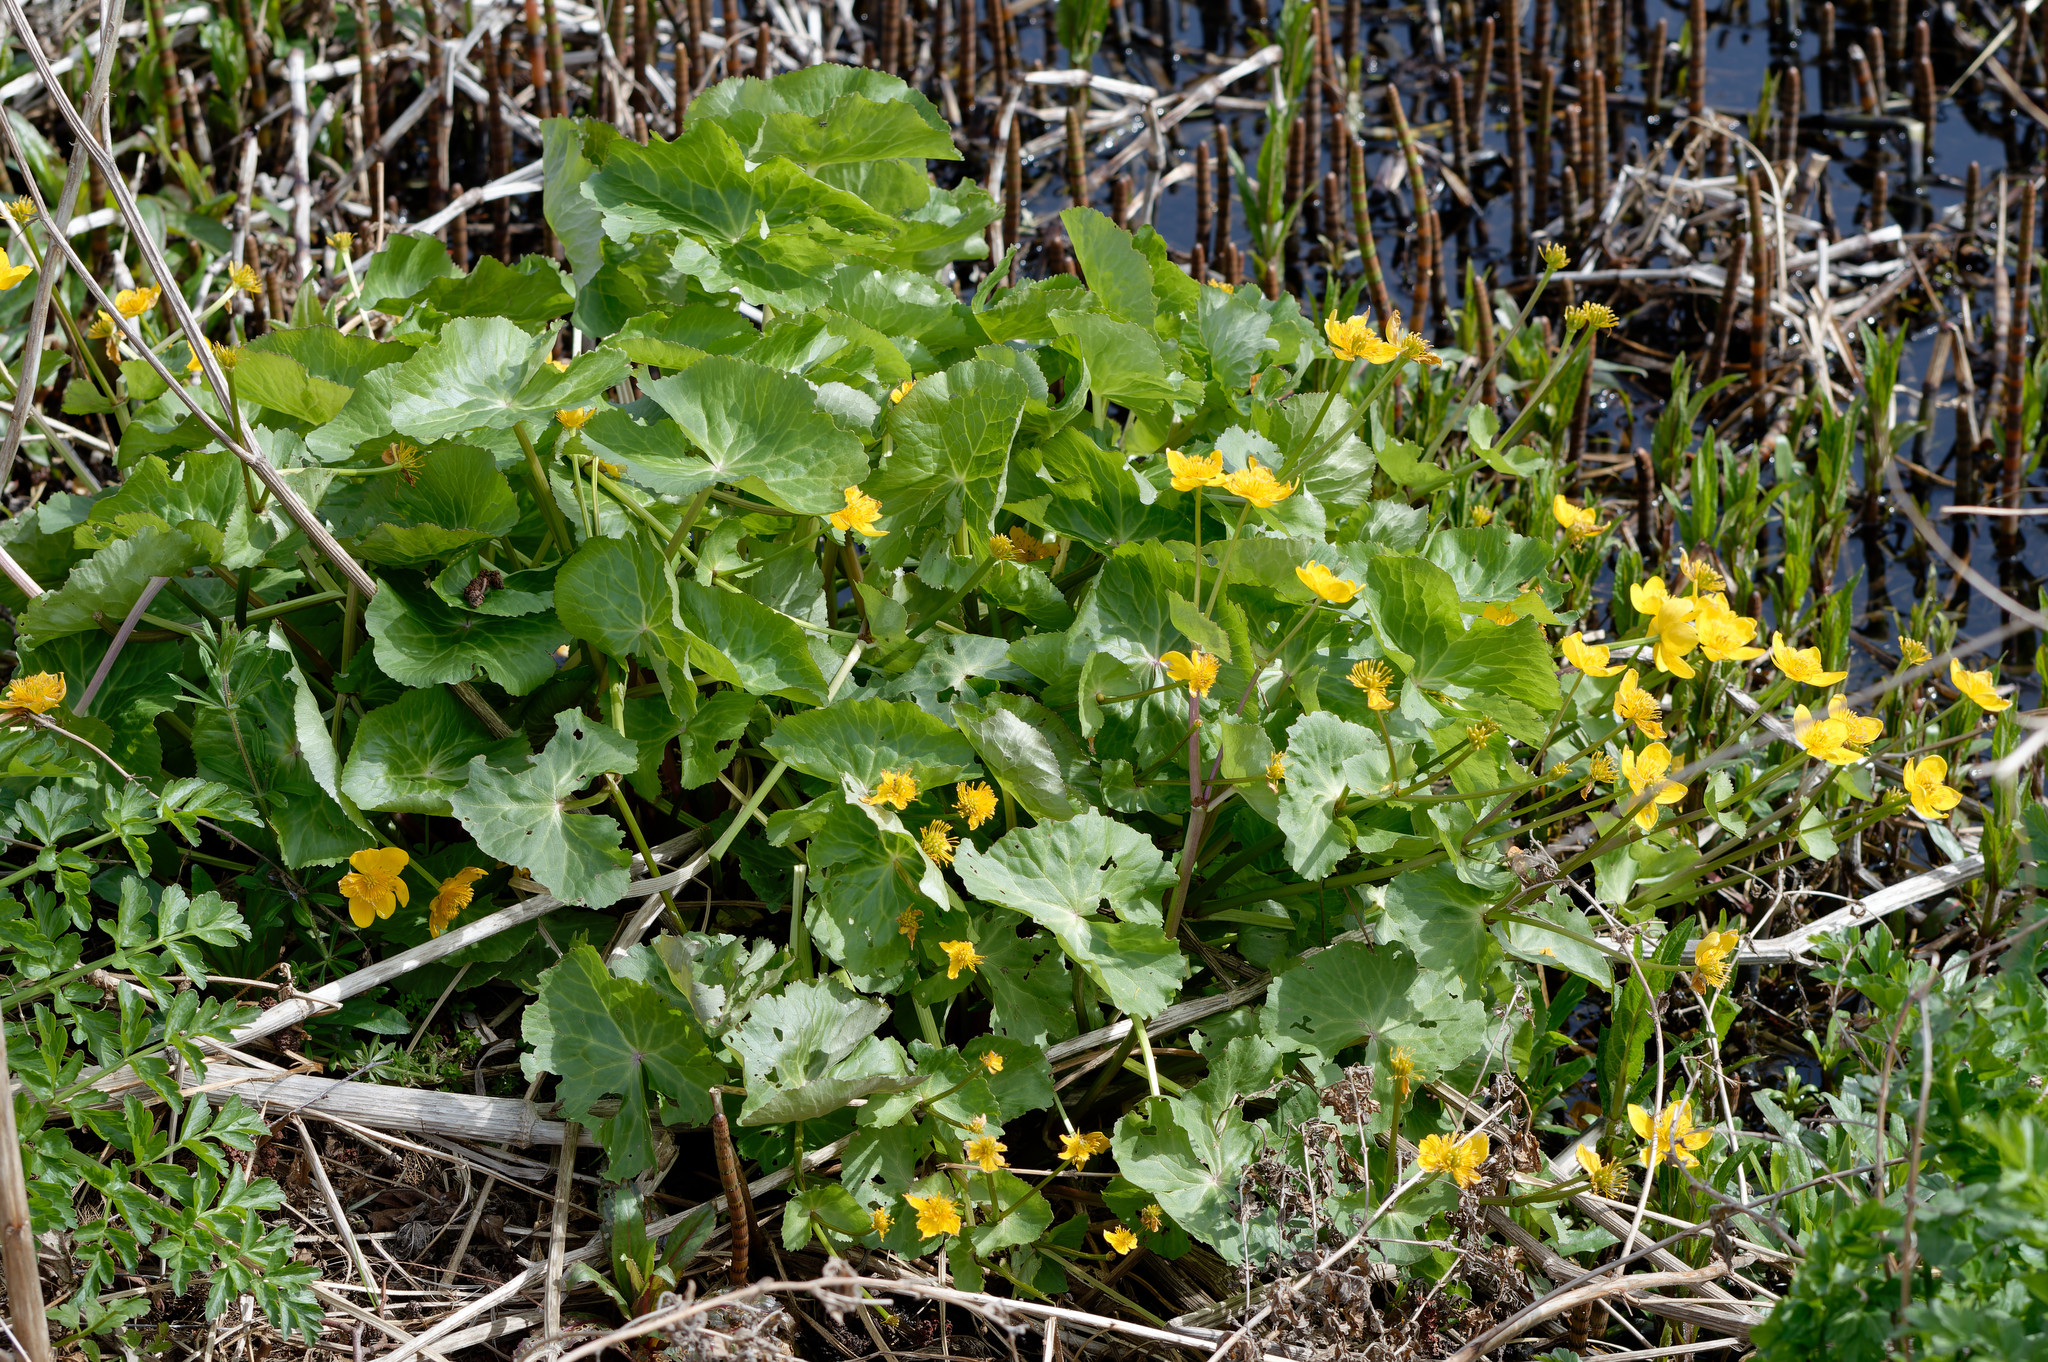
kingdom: Plantae
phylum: Tracheophyta
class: Magnoliopsida
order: Ranunculales
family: Ranunculaceae
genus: Caltha
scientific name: Caltha palustris
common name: Marsh marigold
